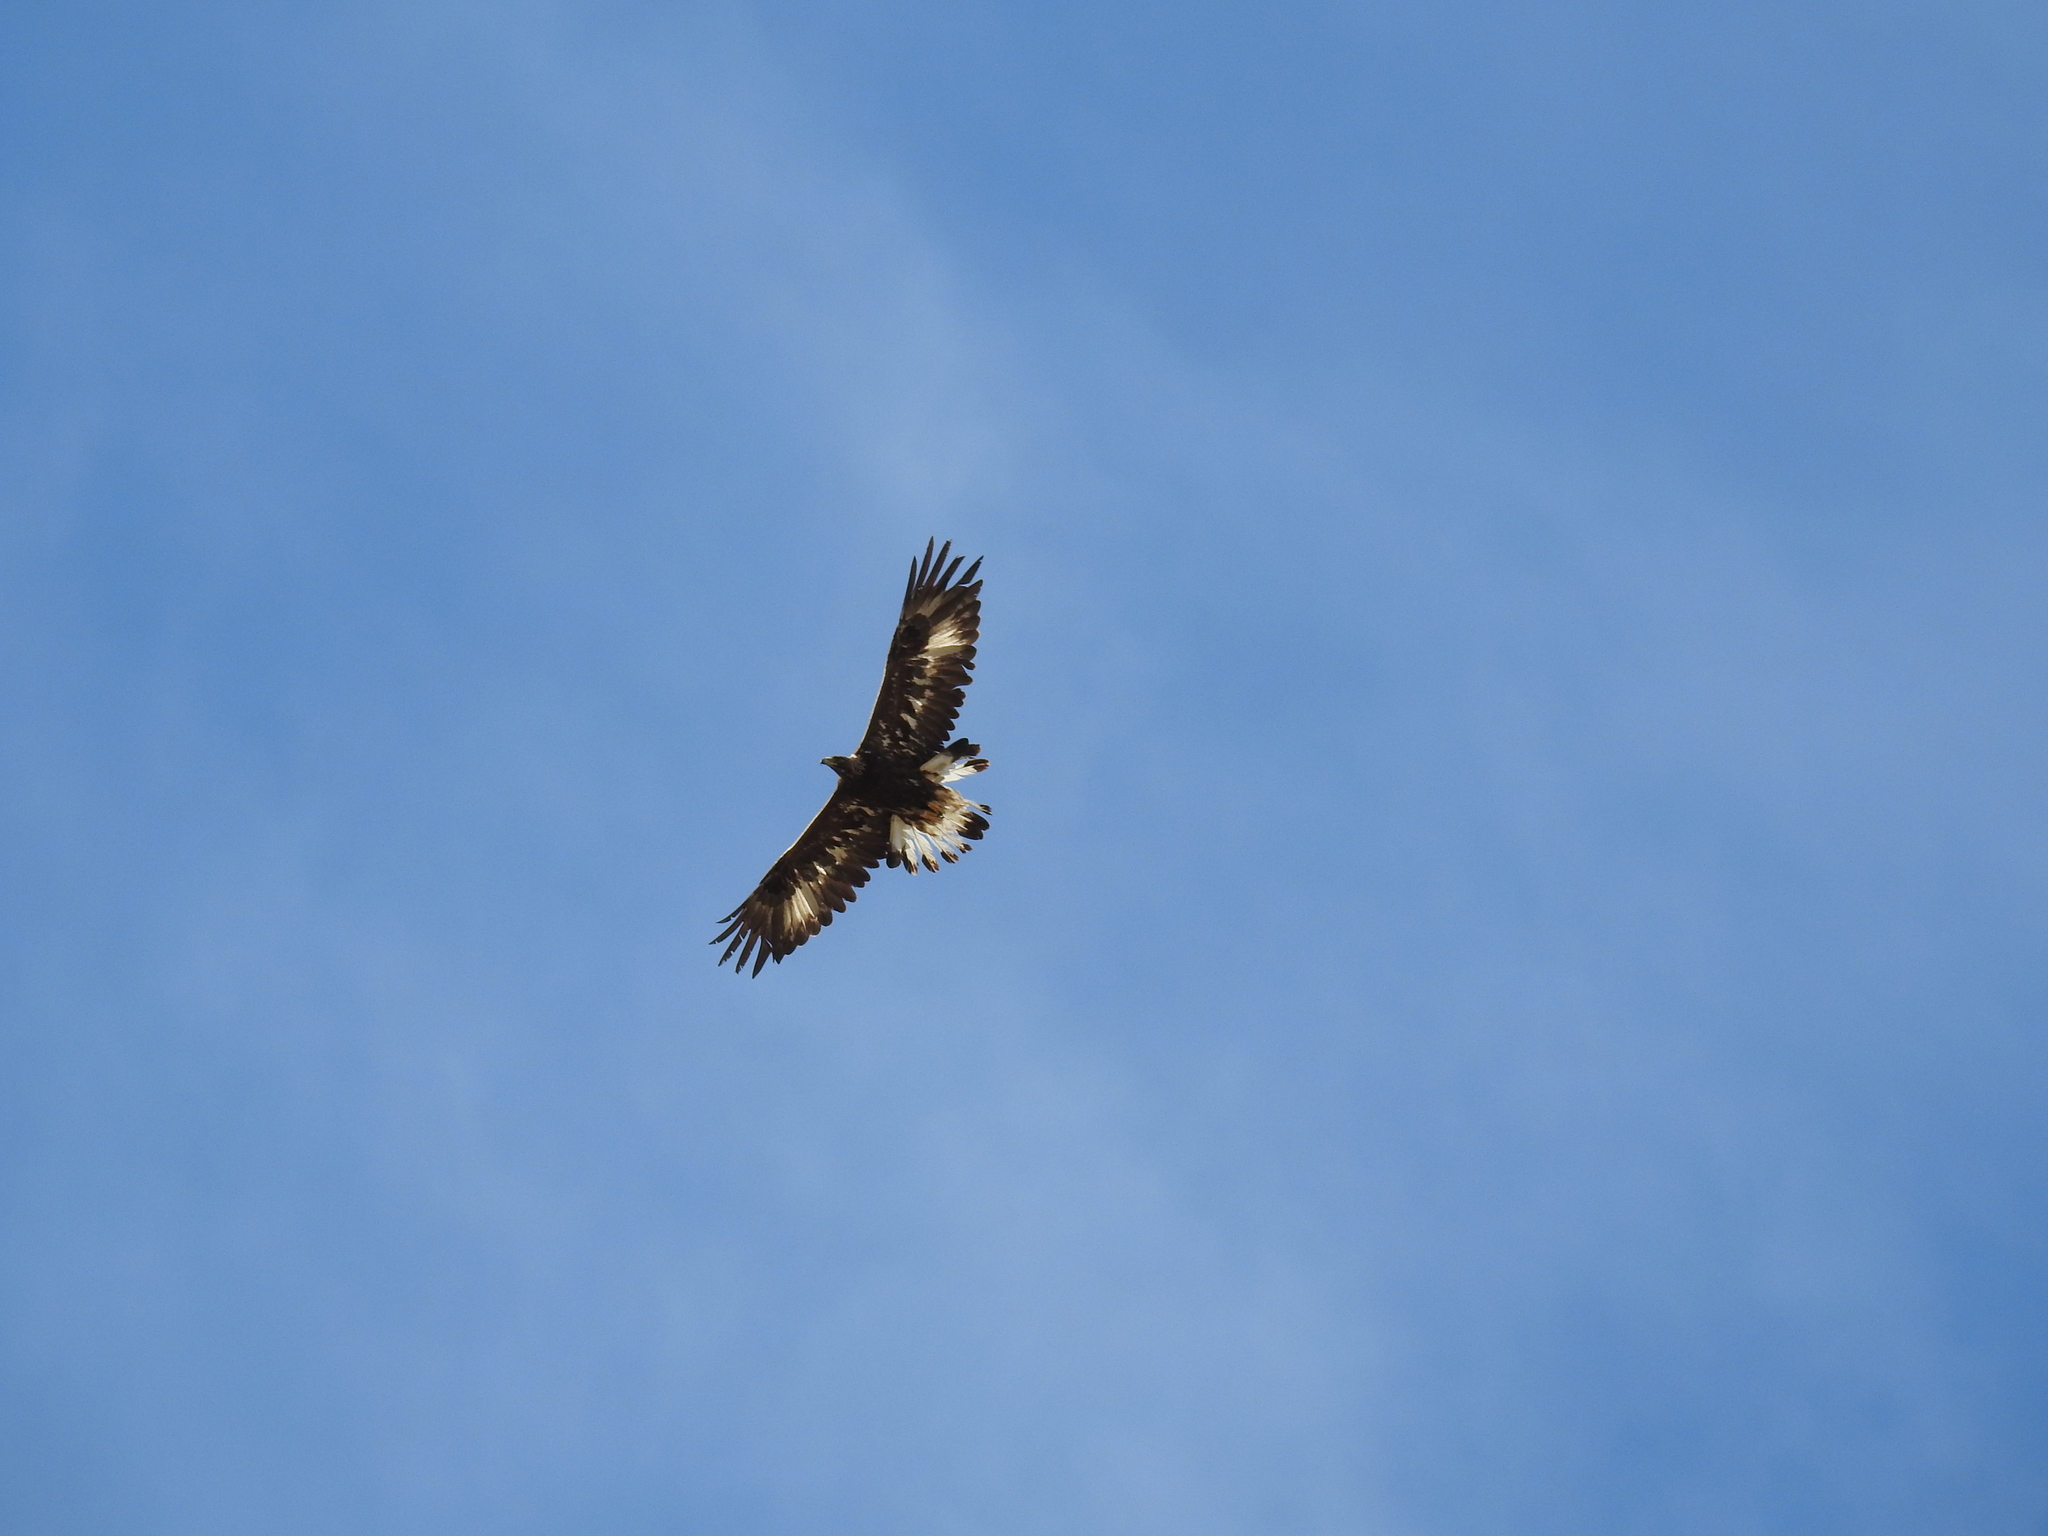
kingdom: Animalia
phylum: Chordata
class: Aves
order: Accipitriformes
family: Accipitridae
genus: Aquila
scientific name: Aquila chrysaetos
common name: Golden eagle
